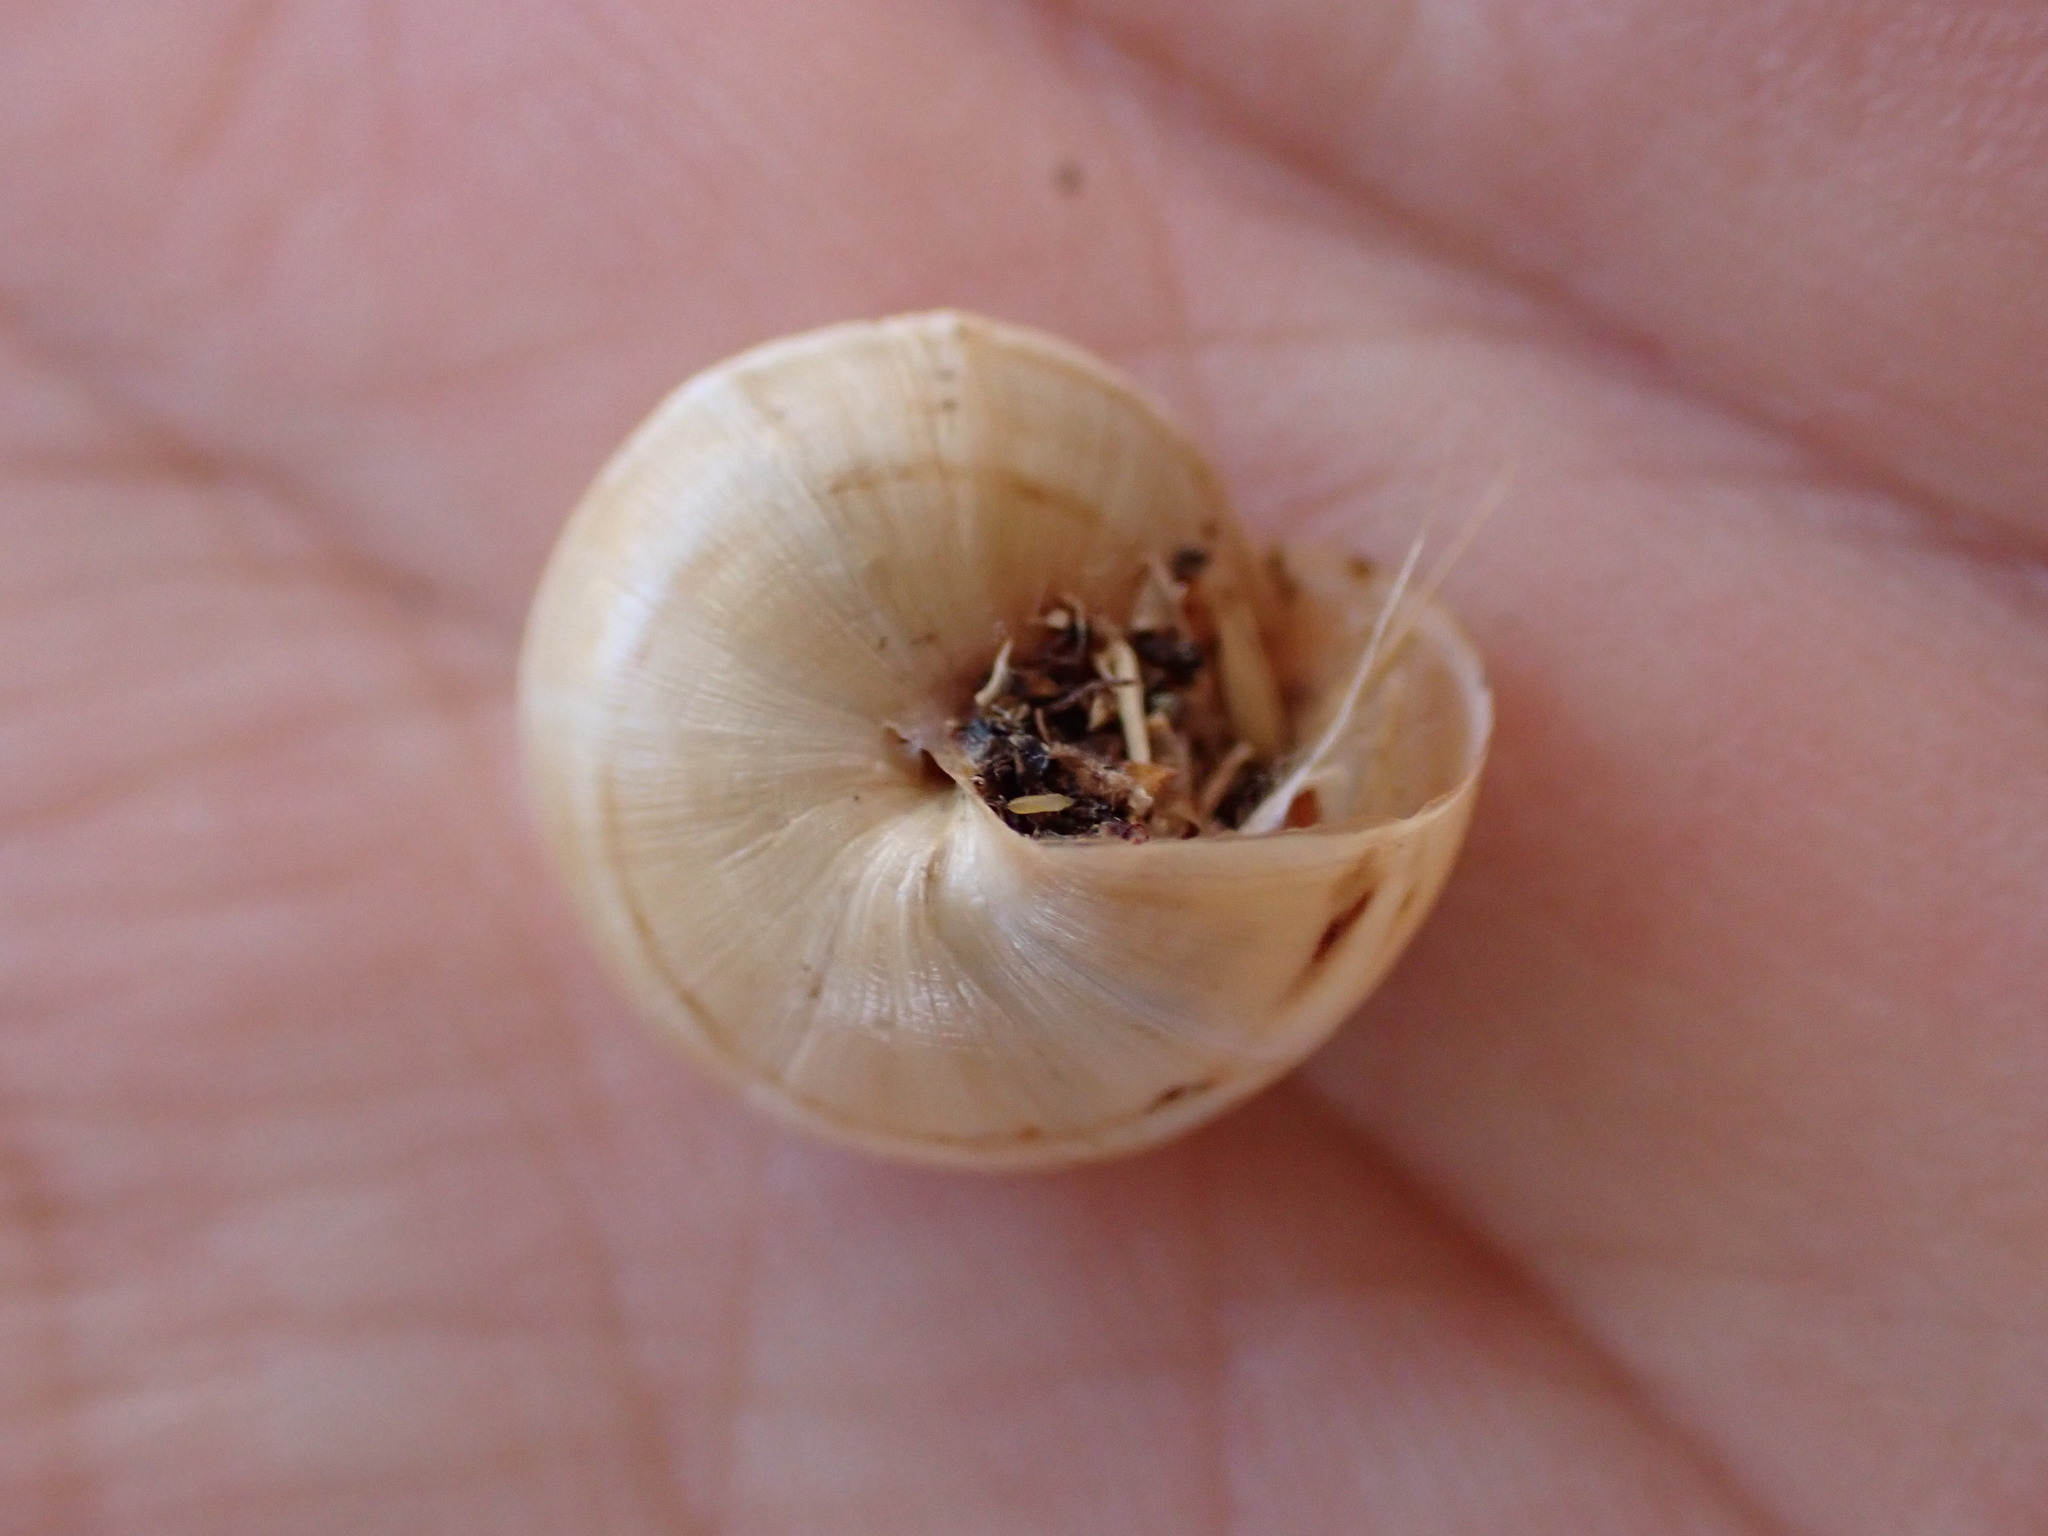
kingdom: Animalia
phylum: Mollusca
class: Gastropoda
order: Stylommatophora
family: Helicidae
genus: Theba
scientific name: Theba pisana
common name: White snail
